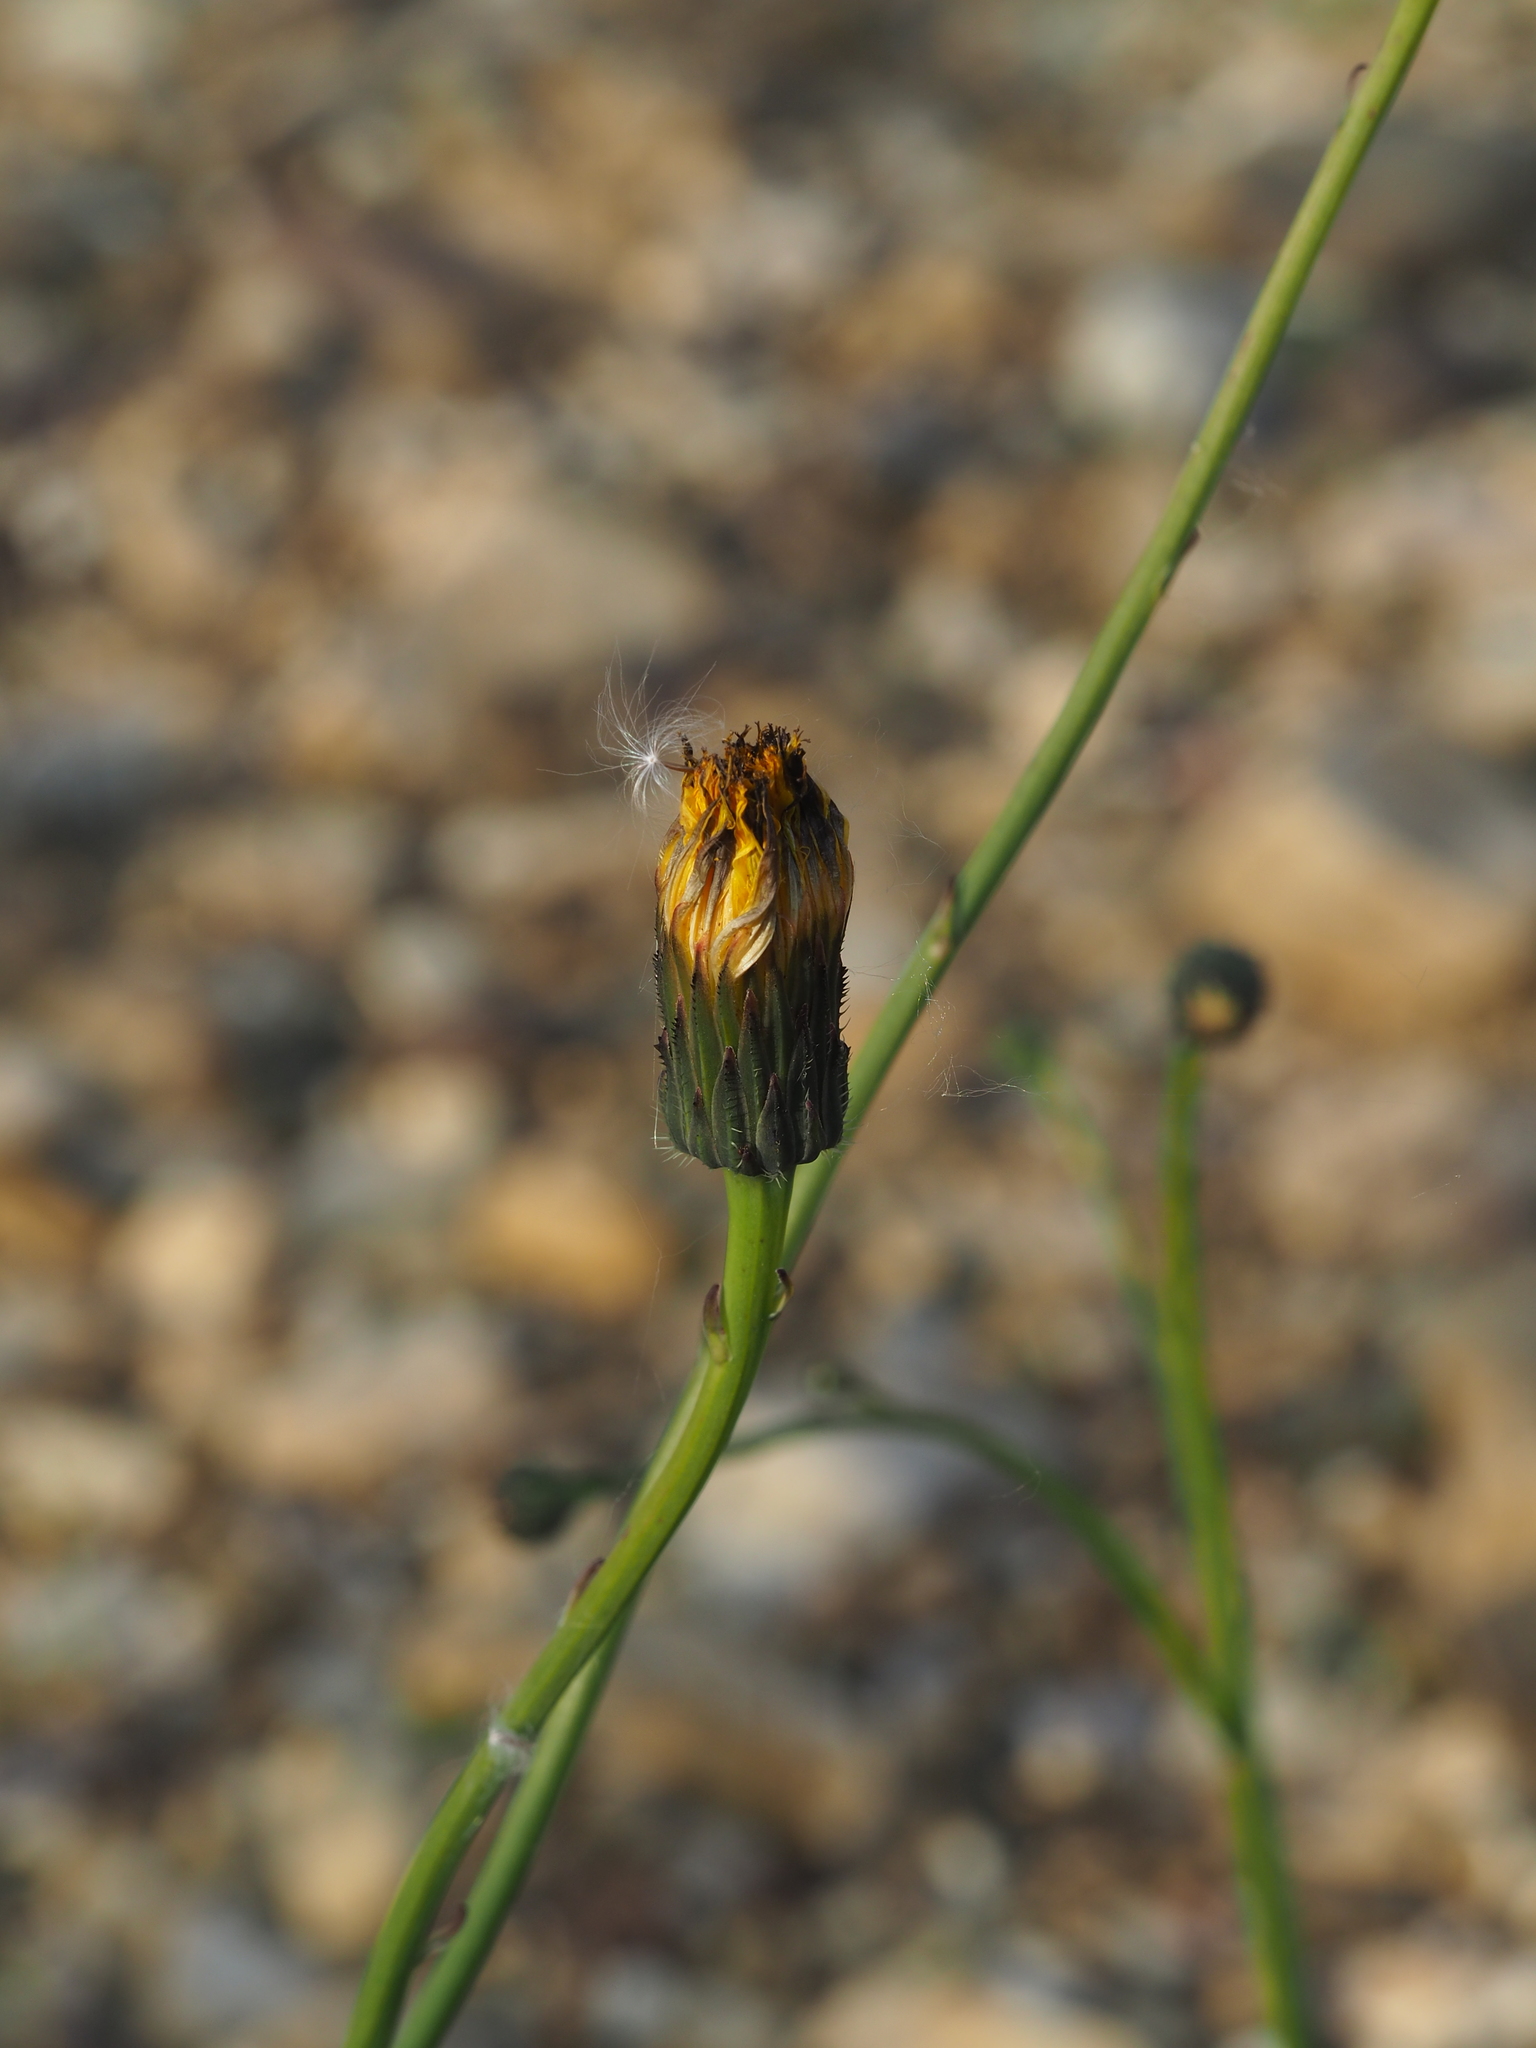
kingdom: Plantae
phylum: Tracheophyta
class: Magnoliopsida
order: Asterales
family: Asteraceae
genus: Hypochaeris
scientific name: Hypochaeris radicata
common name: Flatweed
